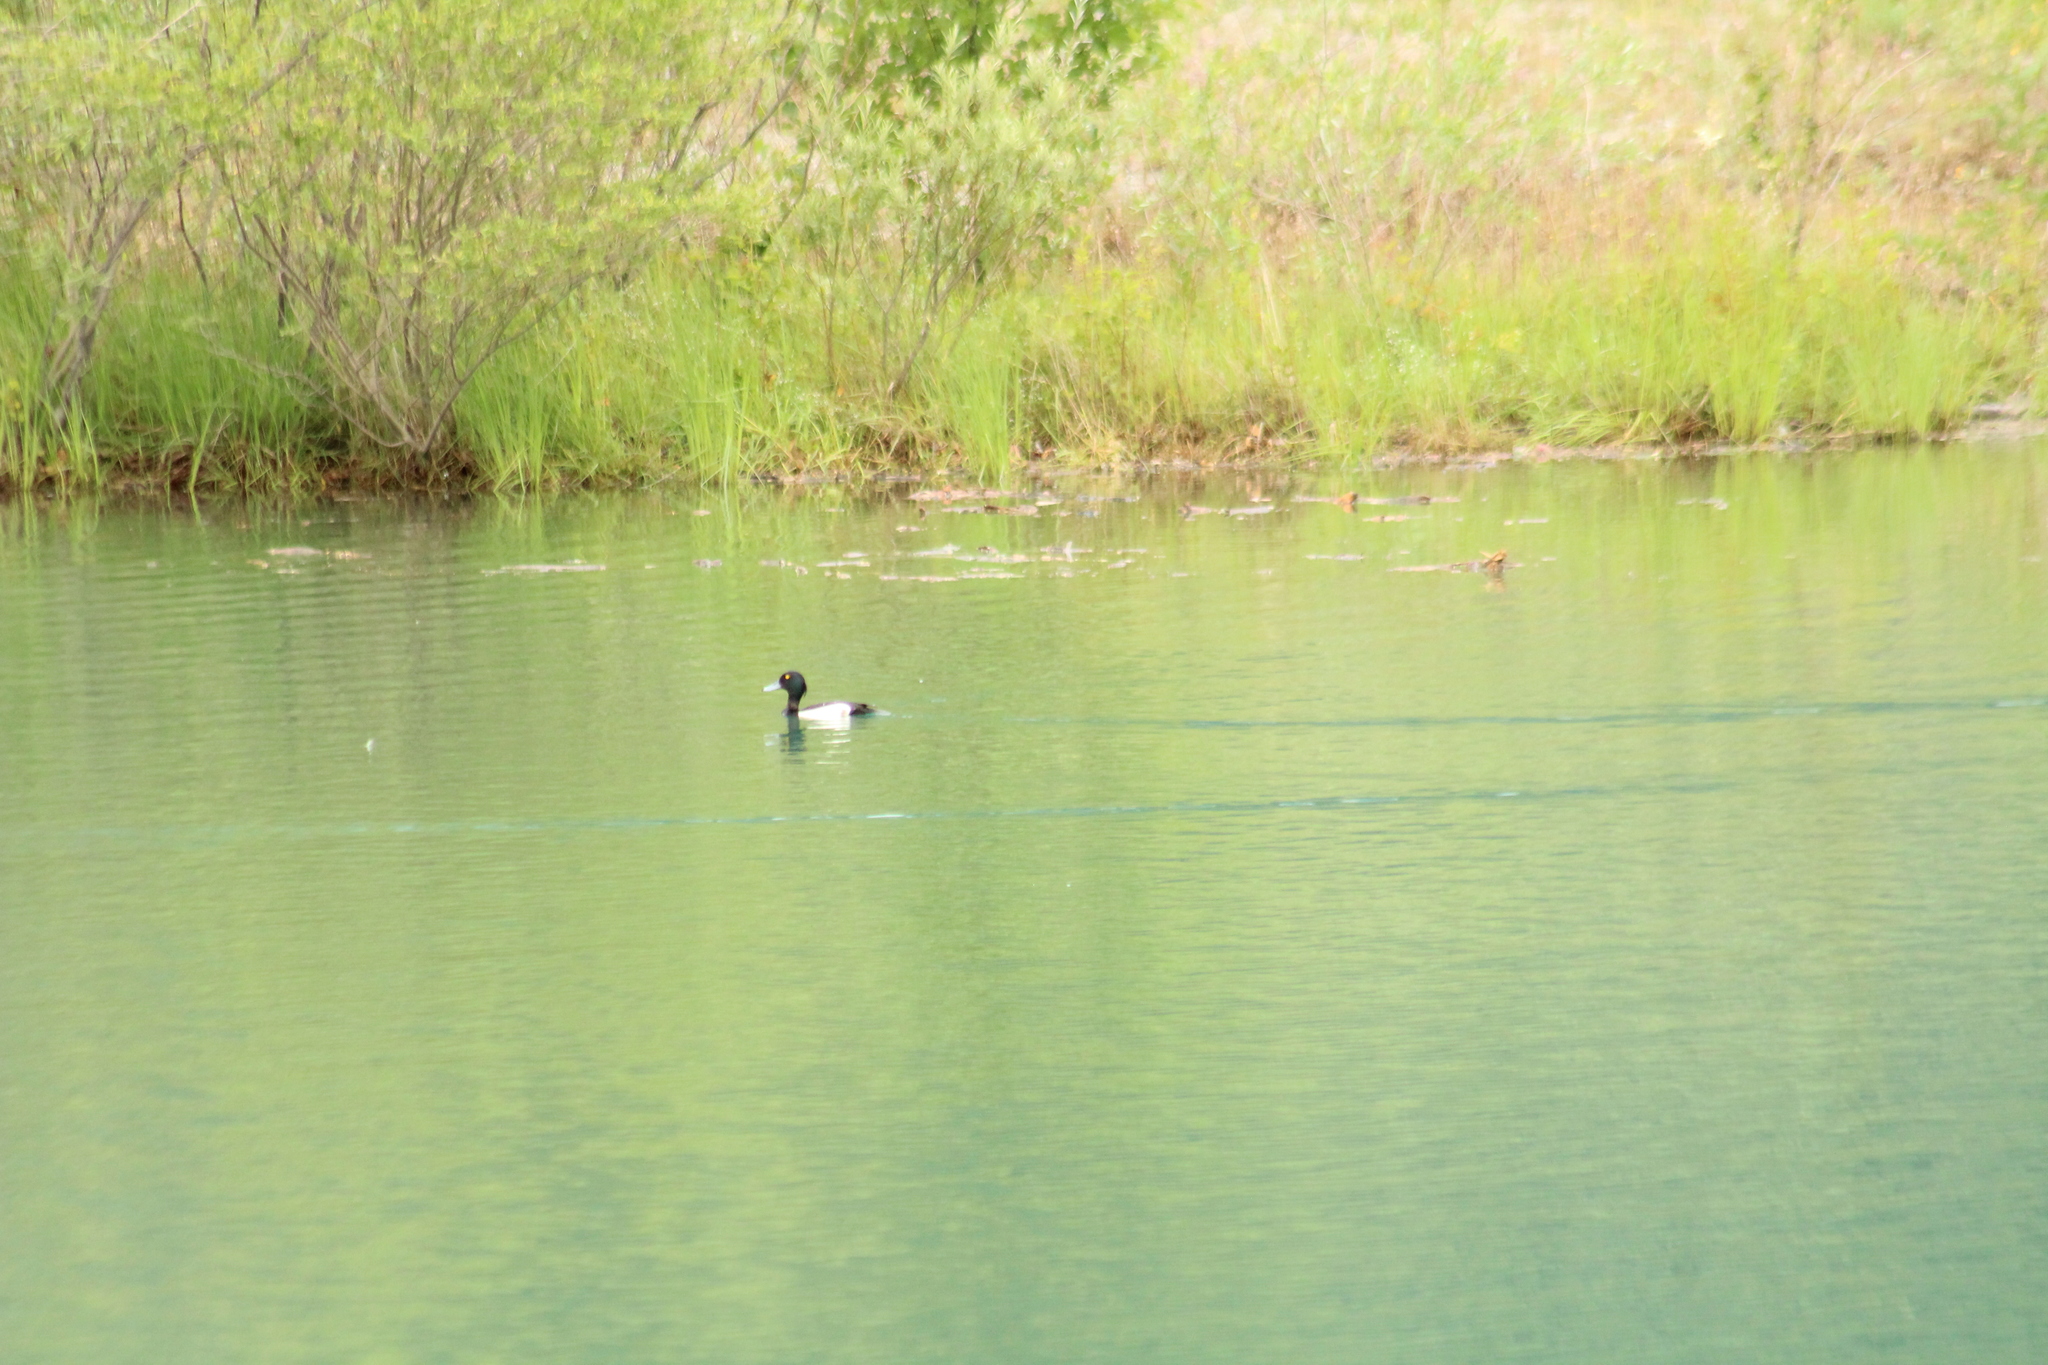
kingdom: Animalia
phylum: Chordata
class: Aves
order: Anseriformes
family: Anatidae
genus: Aythya
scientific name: Aythya fuligula
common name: Tufted duck
